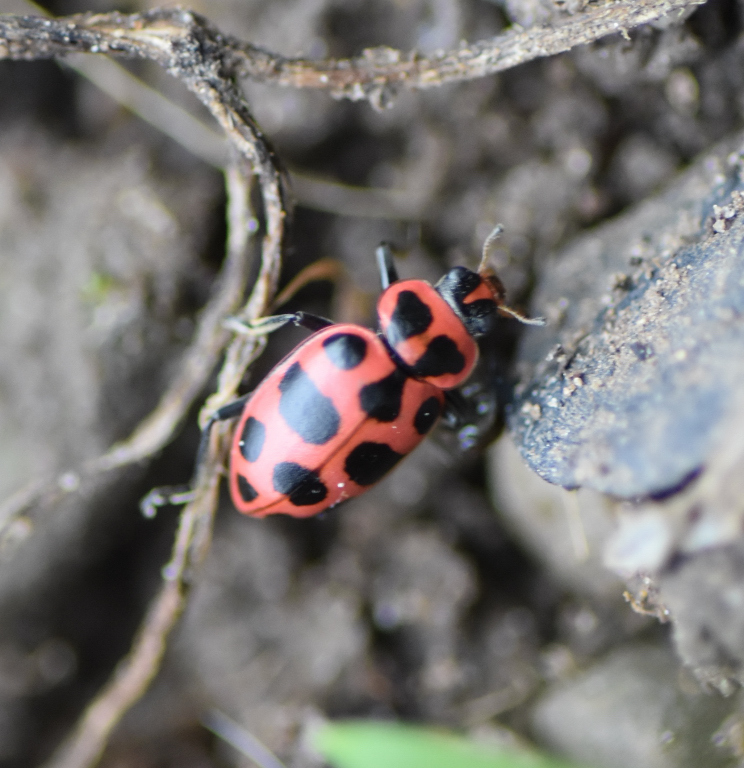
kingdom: Animalia
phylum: Arthropoda
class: Insecta
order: Coleoptera
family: Coccinellidae
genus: Coleomegilla
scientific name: Coleomegilla maculata
